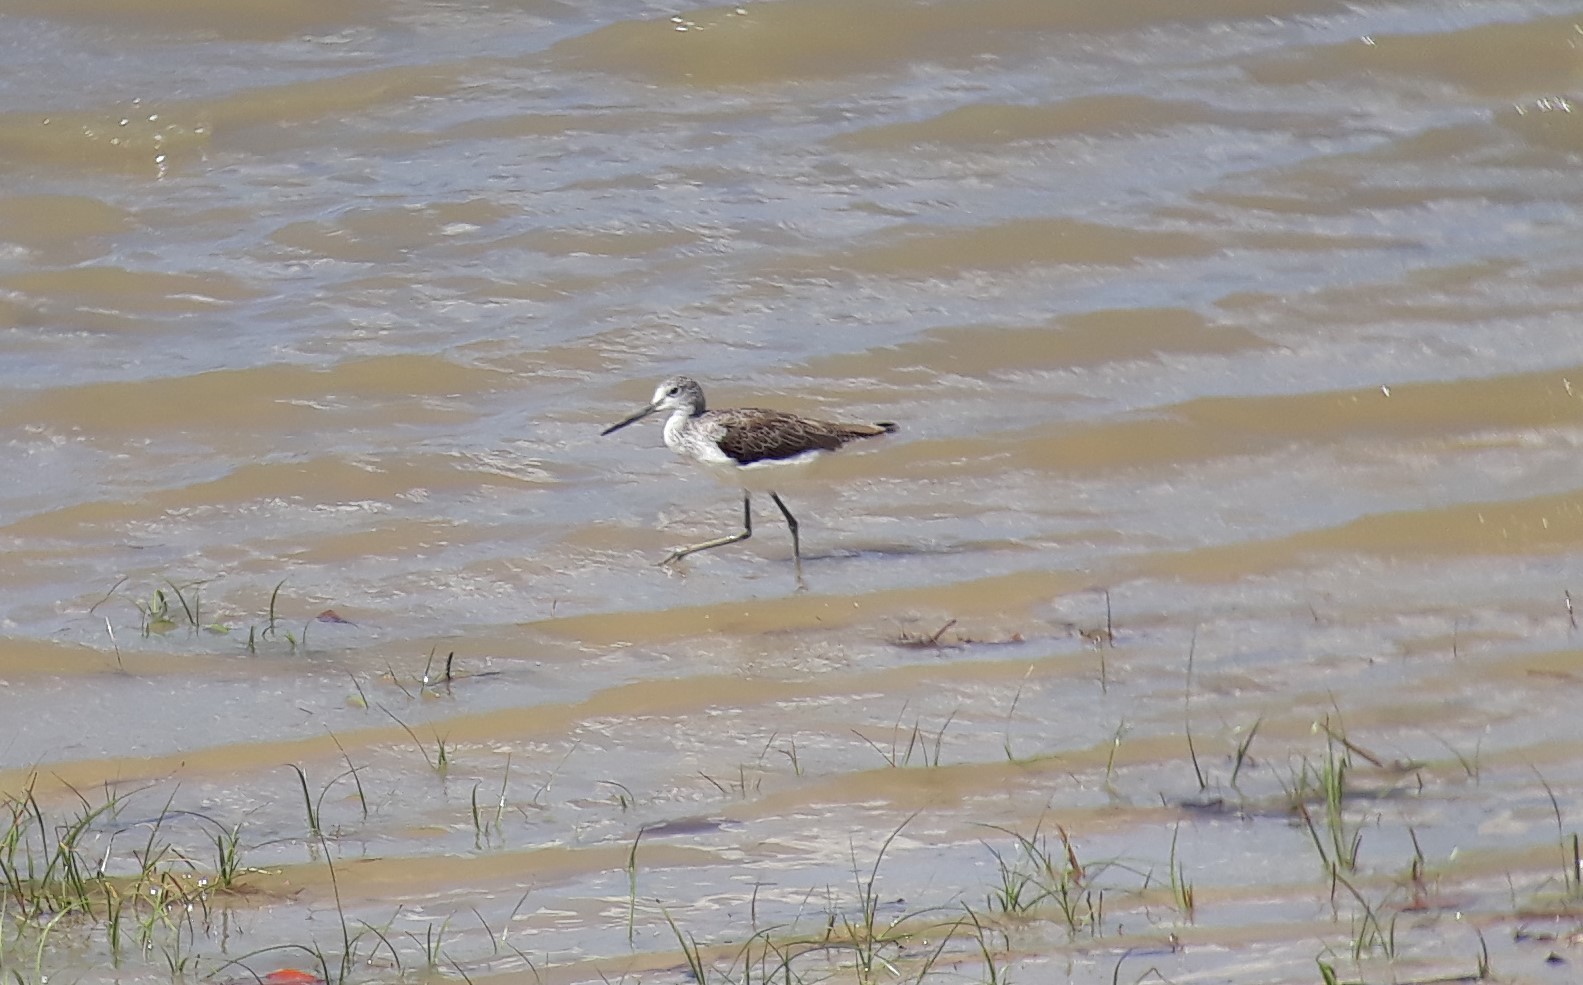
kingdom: Animalia
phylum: Chordata
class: Aves
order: Charadriiformes
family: Scolopacidae
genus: Tringa
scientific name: Tringa nebularia
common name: Common greenshank
